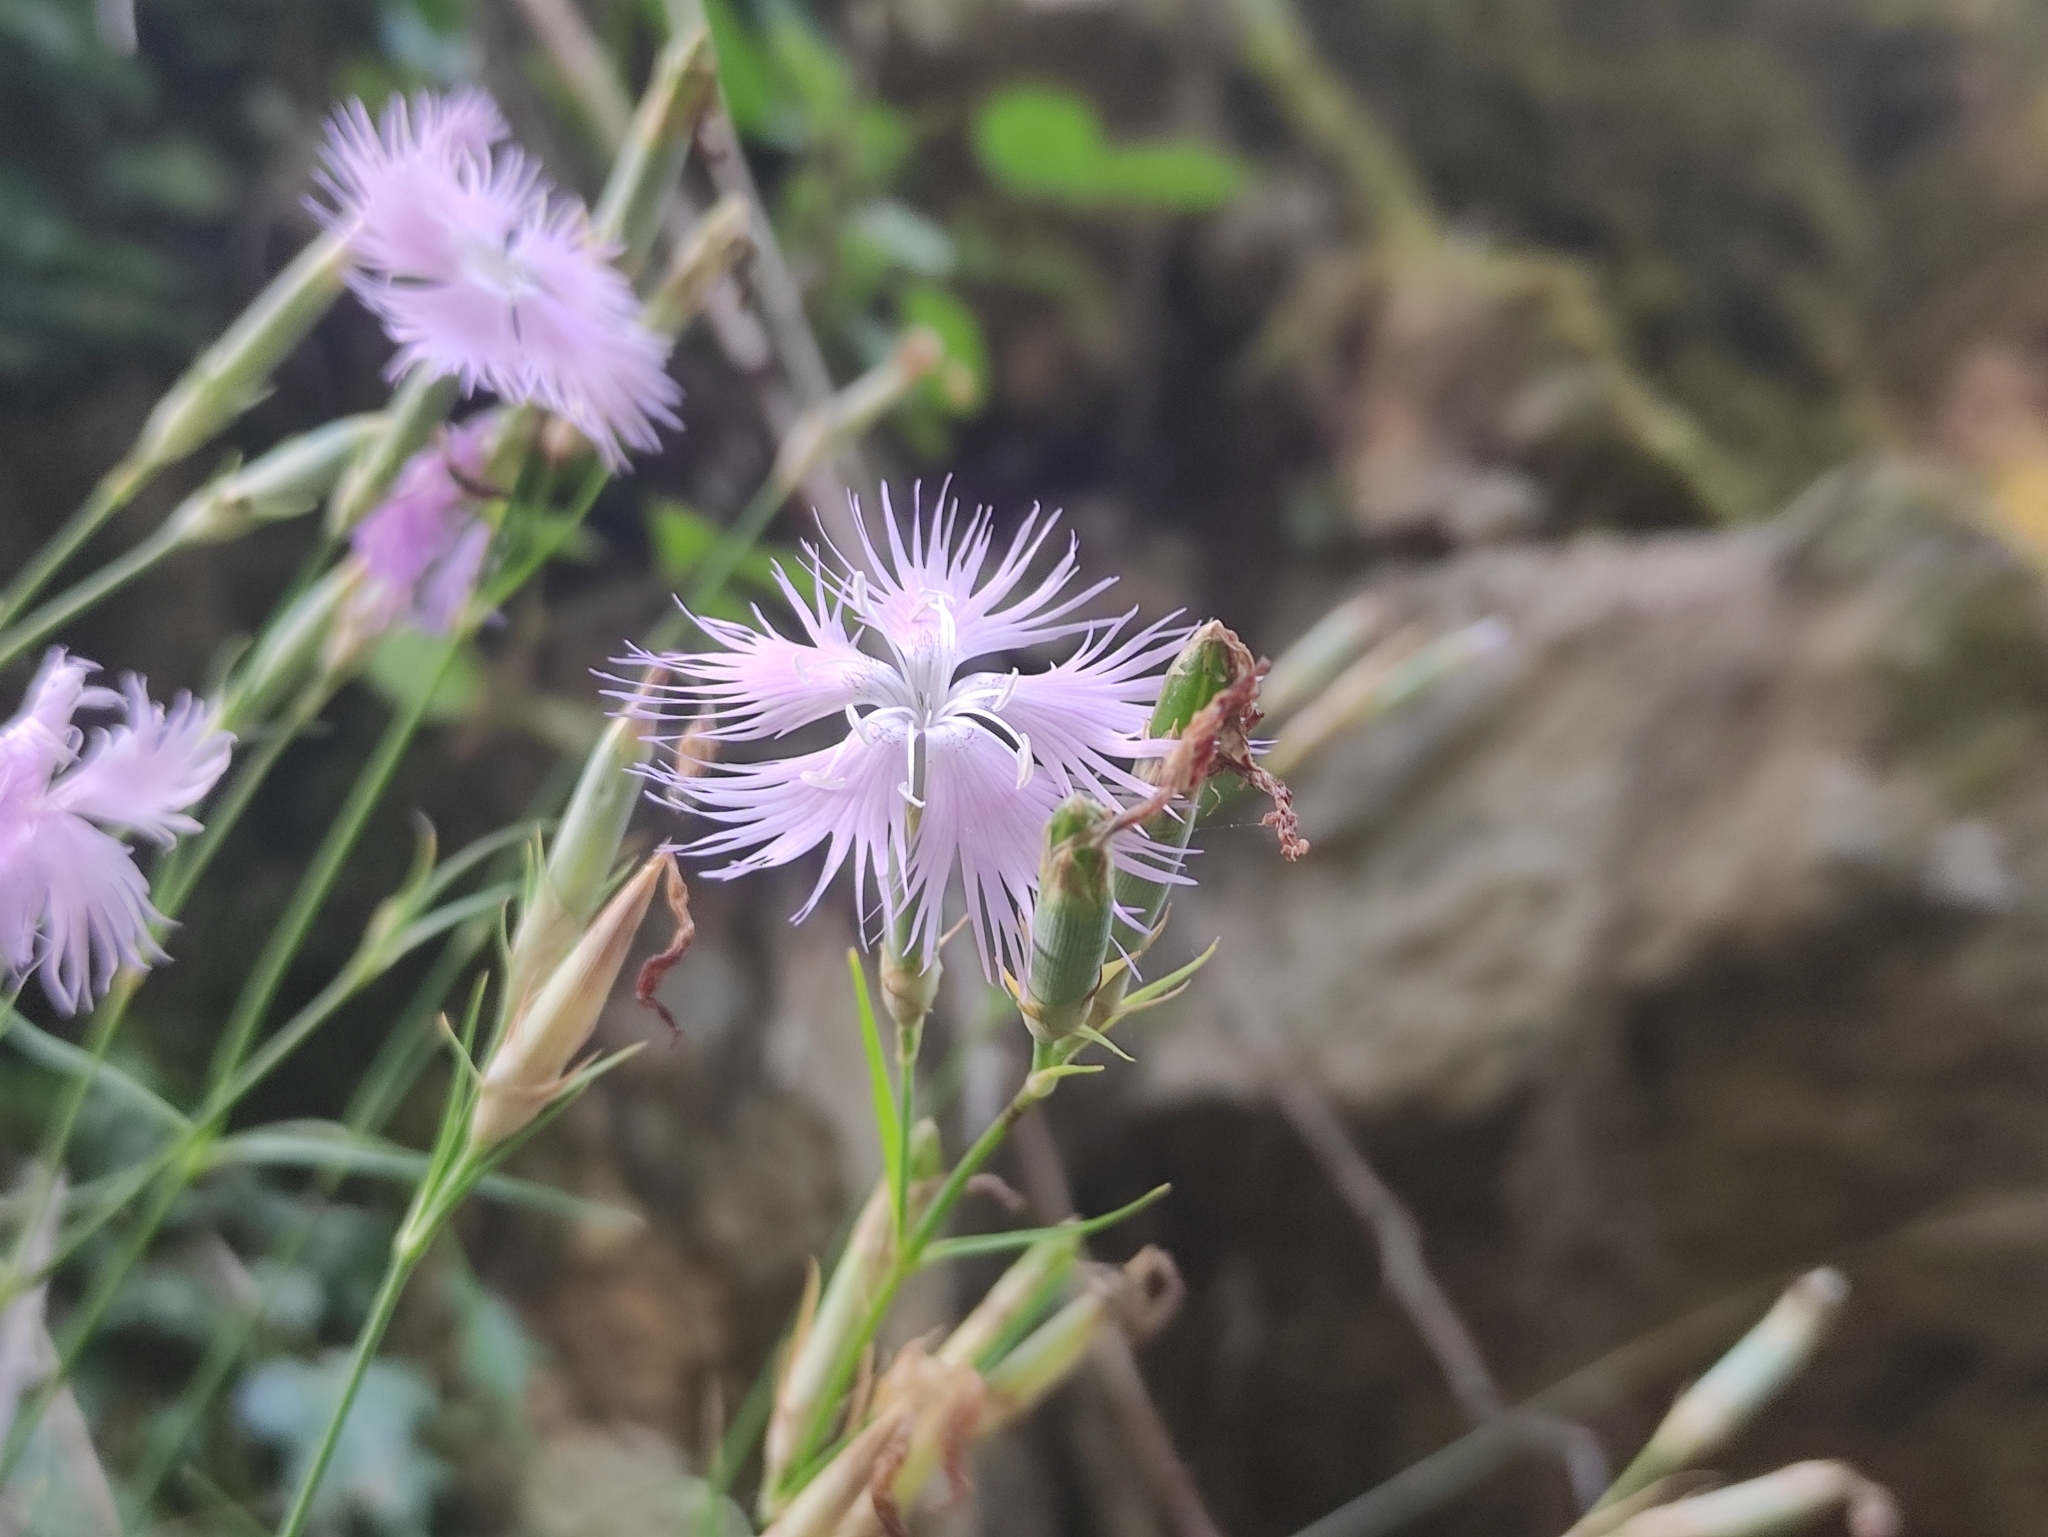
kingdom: Plantae
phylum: Tracheophyta
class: Magnoliopsida
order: Caryophyllales
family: Caryophyllaceae
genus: Dianthus
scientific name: Dianthus hyssopifolius
